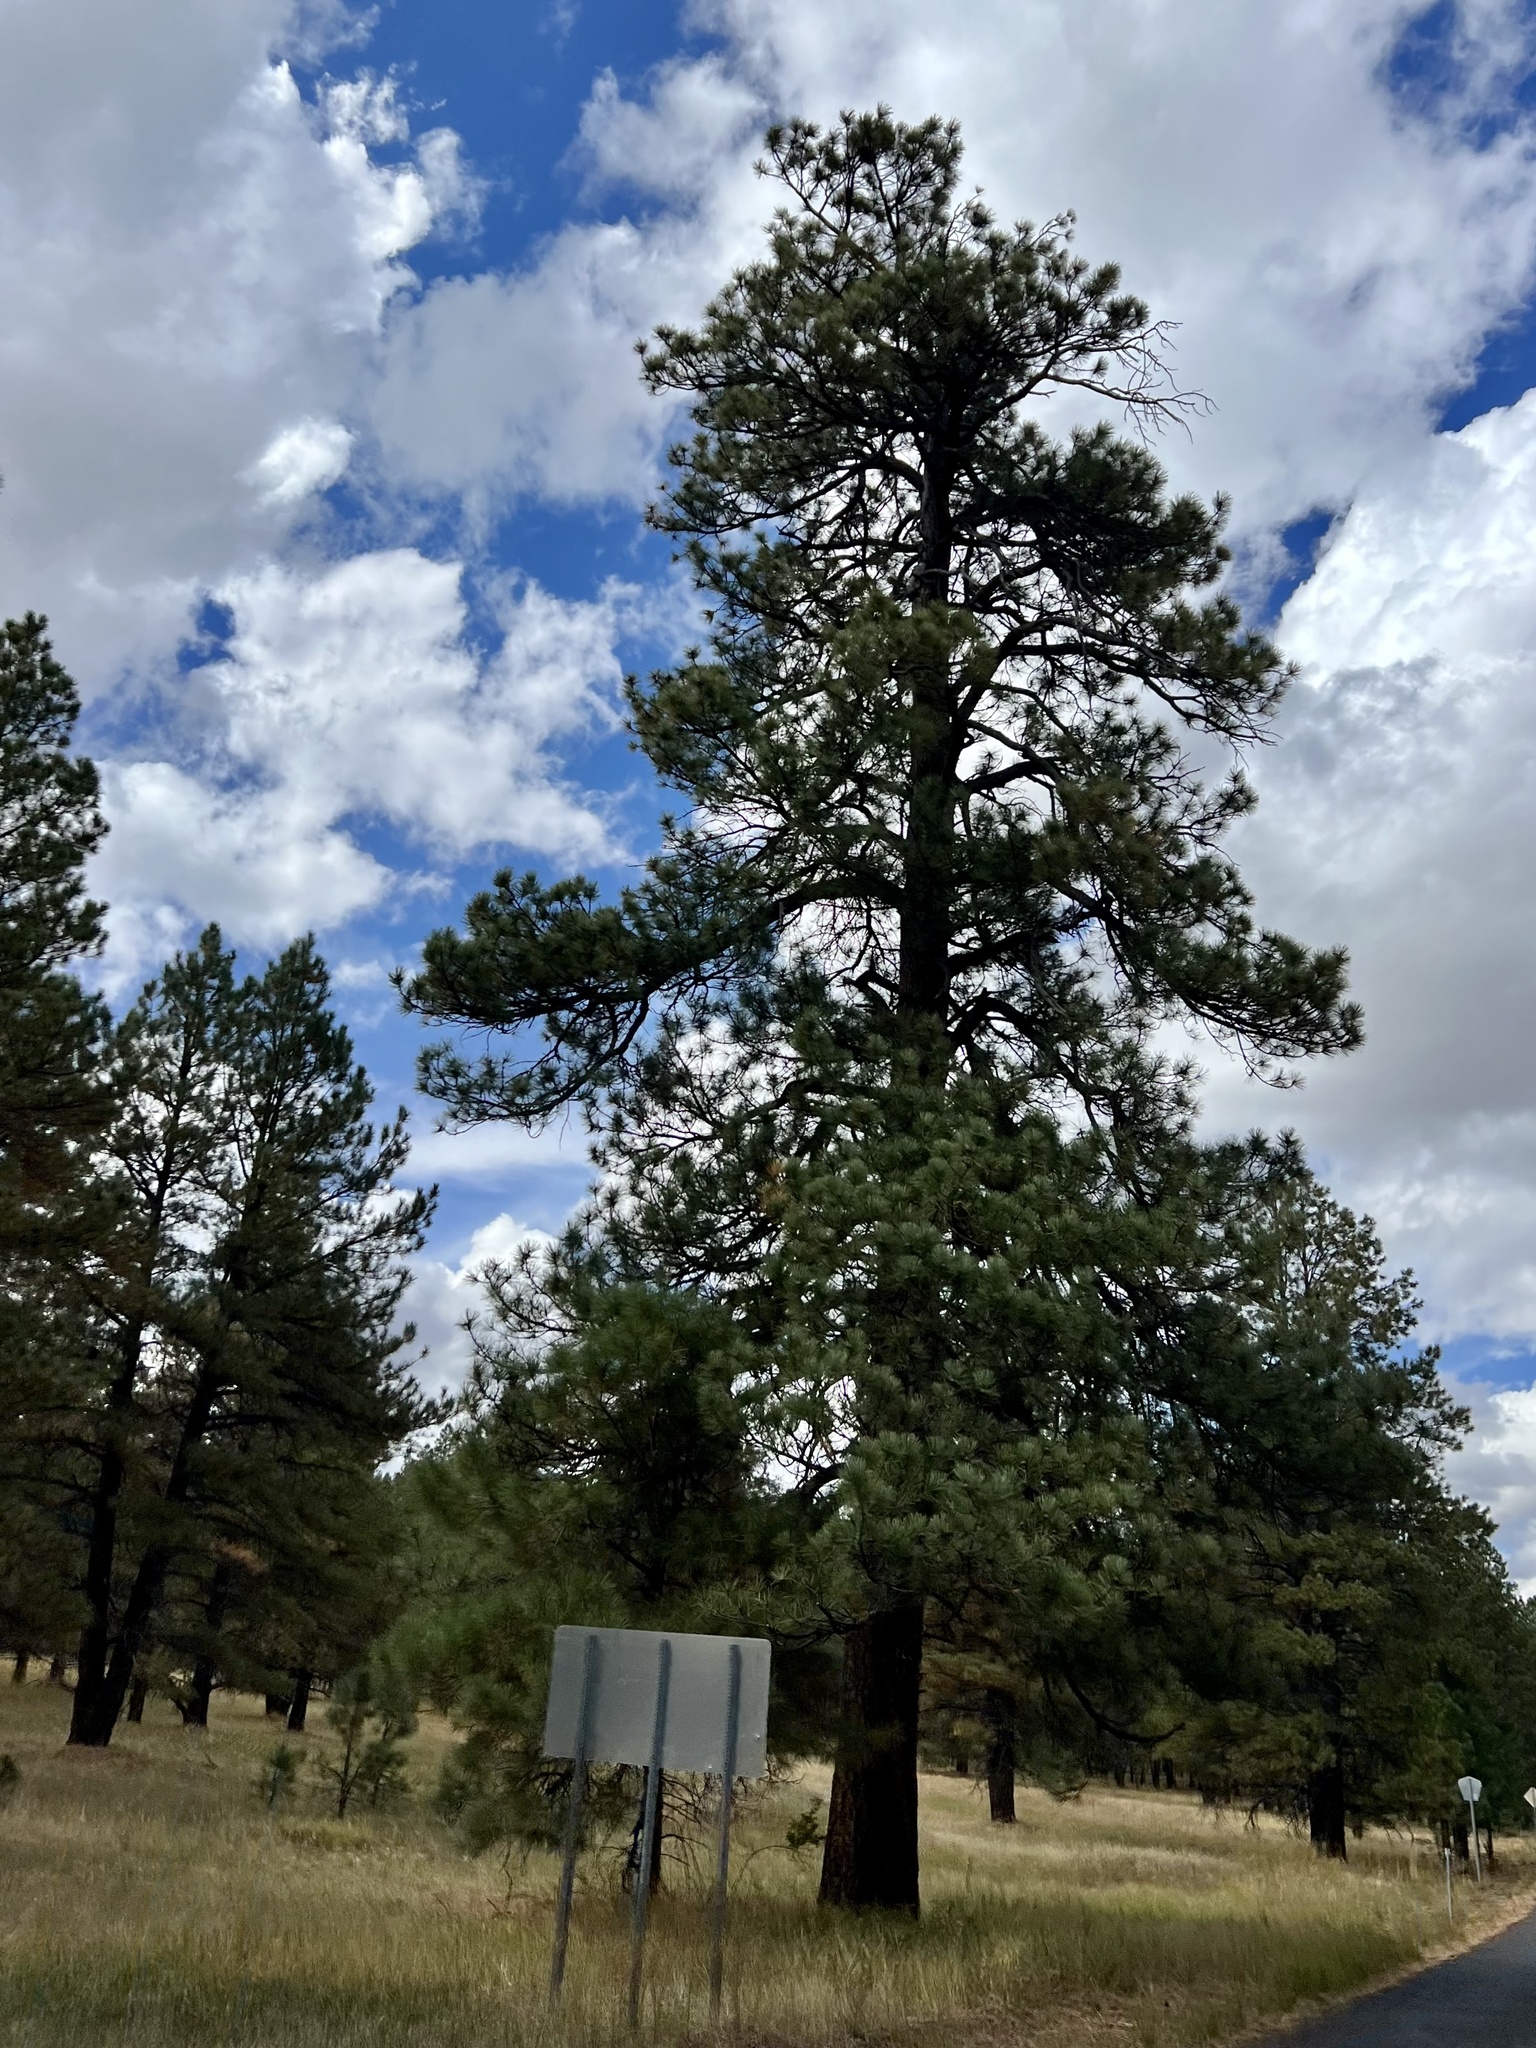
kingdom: Plantae
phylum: Tracheophyta
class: Pinopsida
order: Pinales
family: Pinaceae
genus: Pinus
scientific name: Pinus ponderosa
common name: Western yellow-pine
